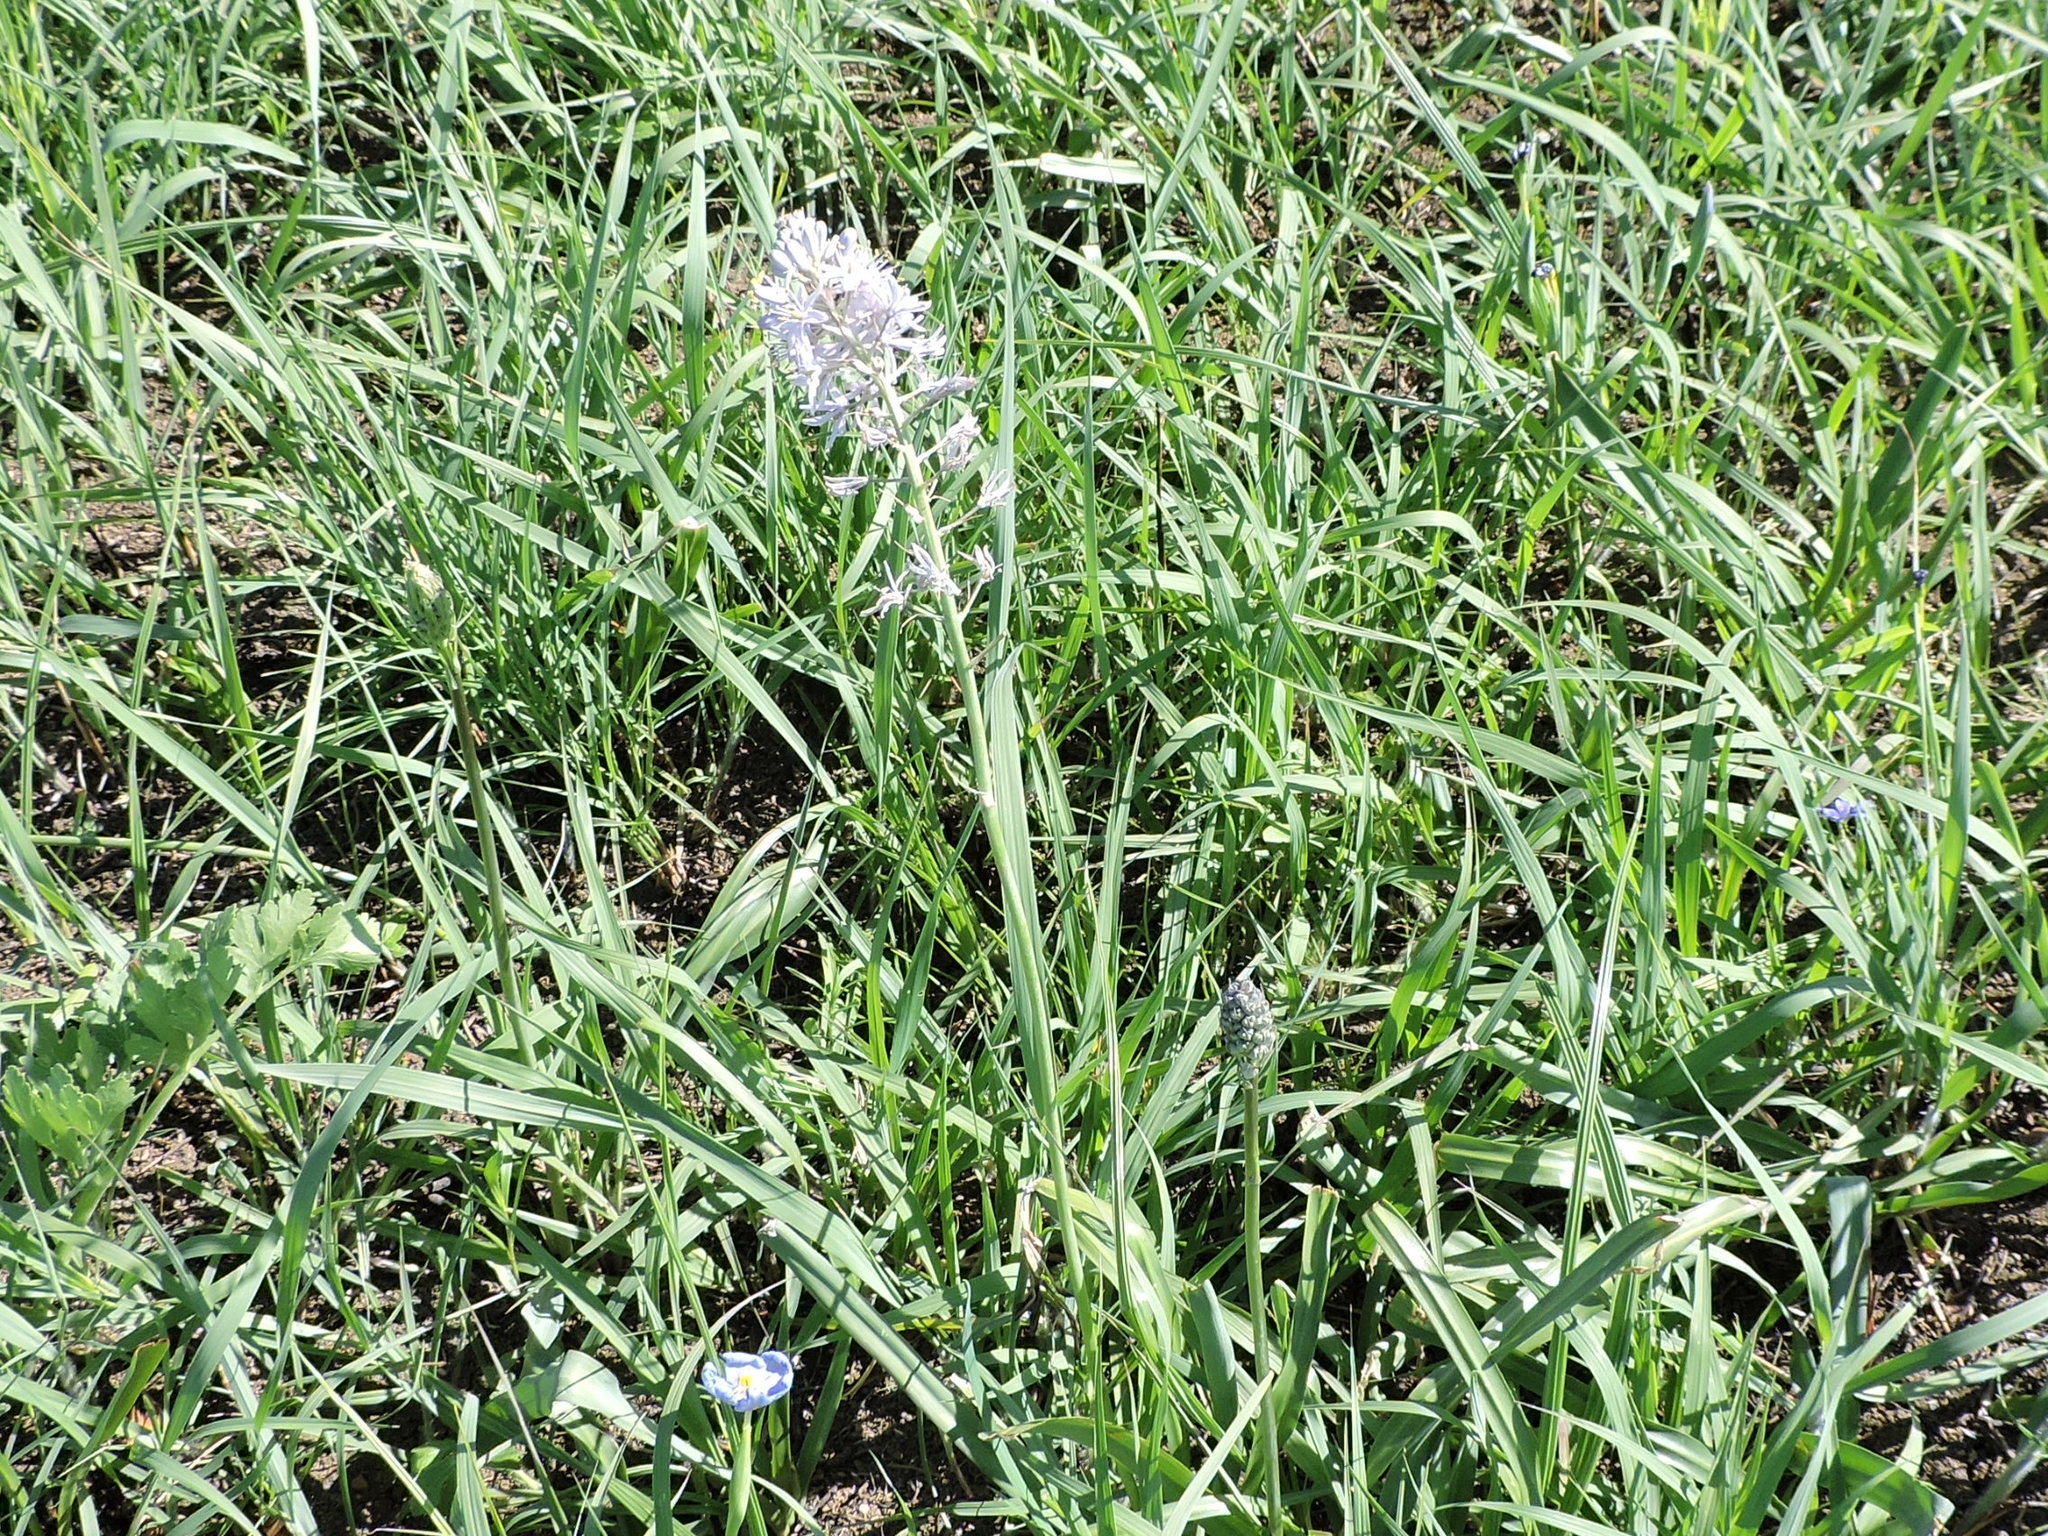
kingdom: Plantae
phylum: Tracheophyta
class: Liliopsida
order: Asparagales
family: Asparagaceae
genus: Camassia
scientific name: Camassia scilloides
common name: Wild hyacinth
